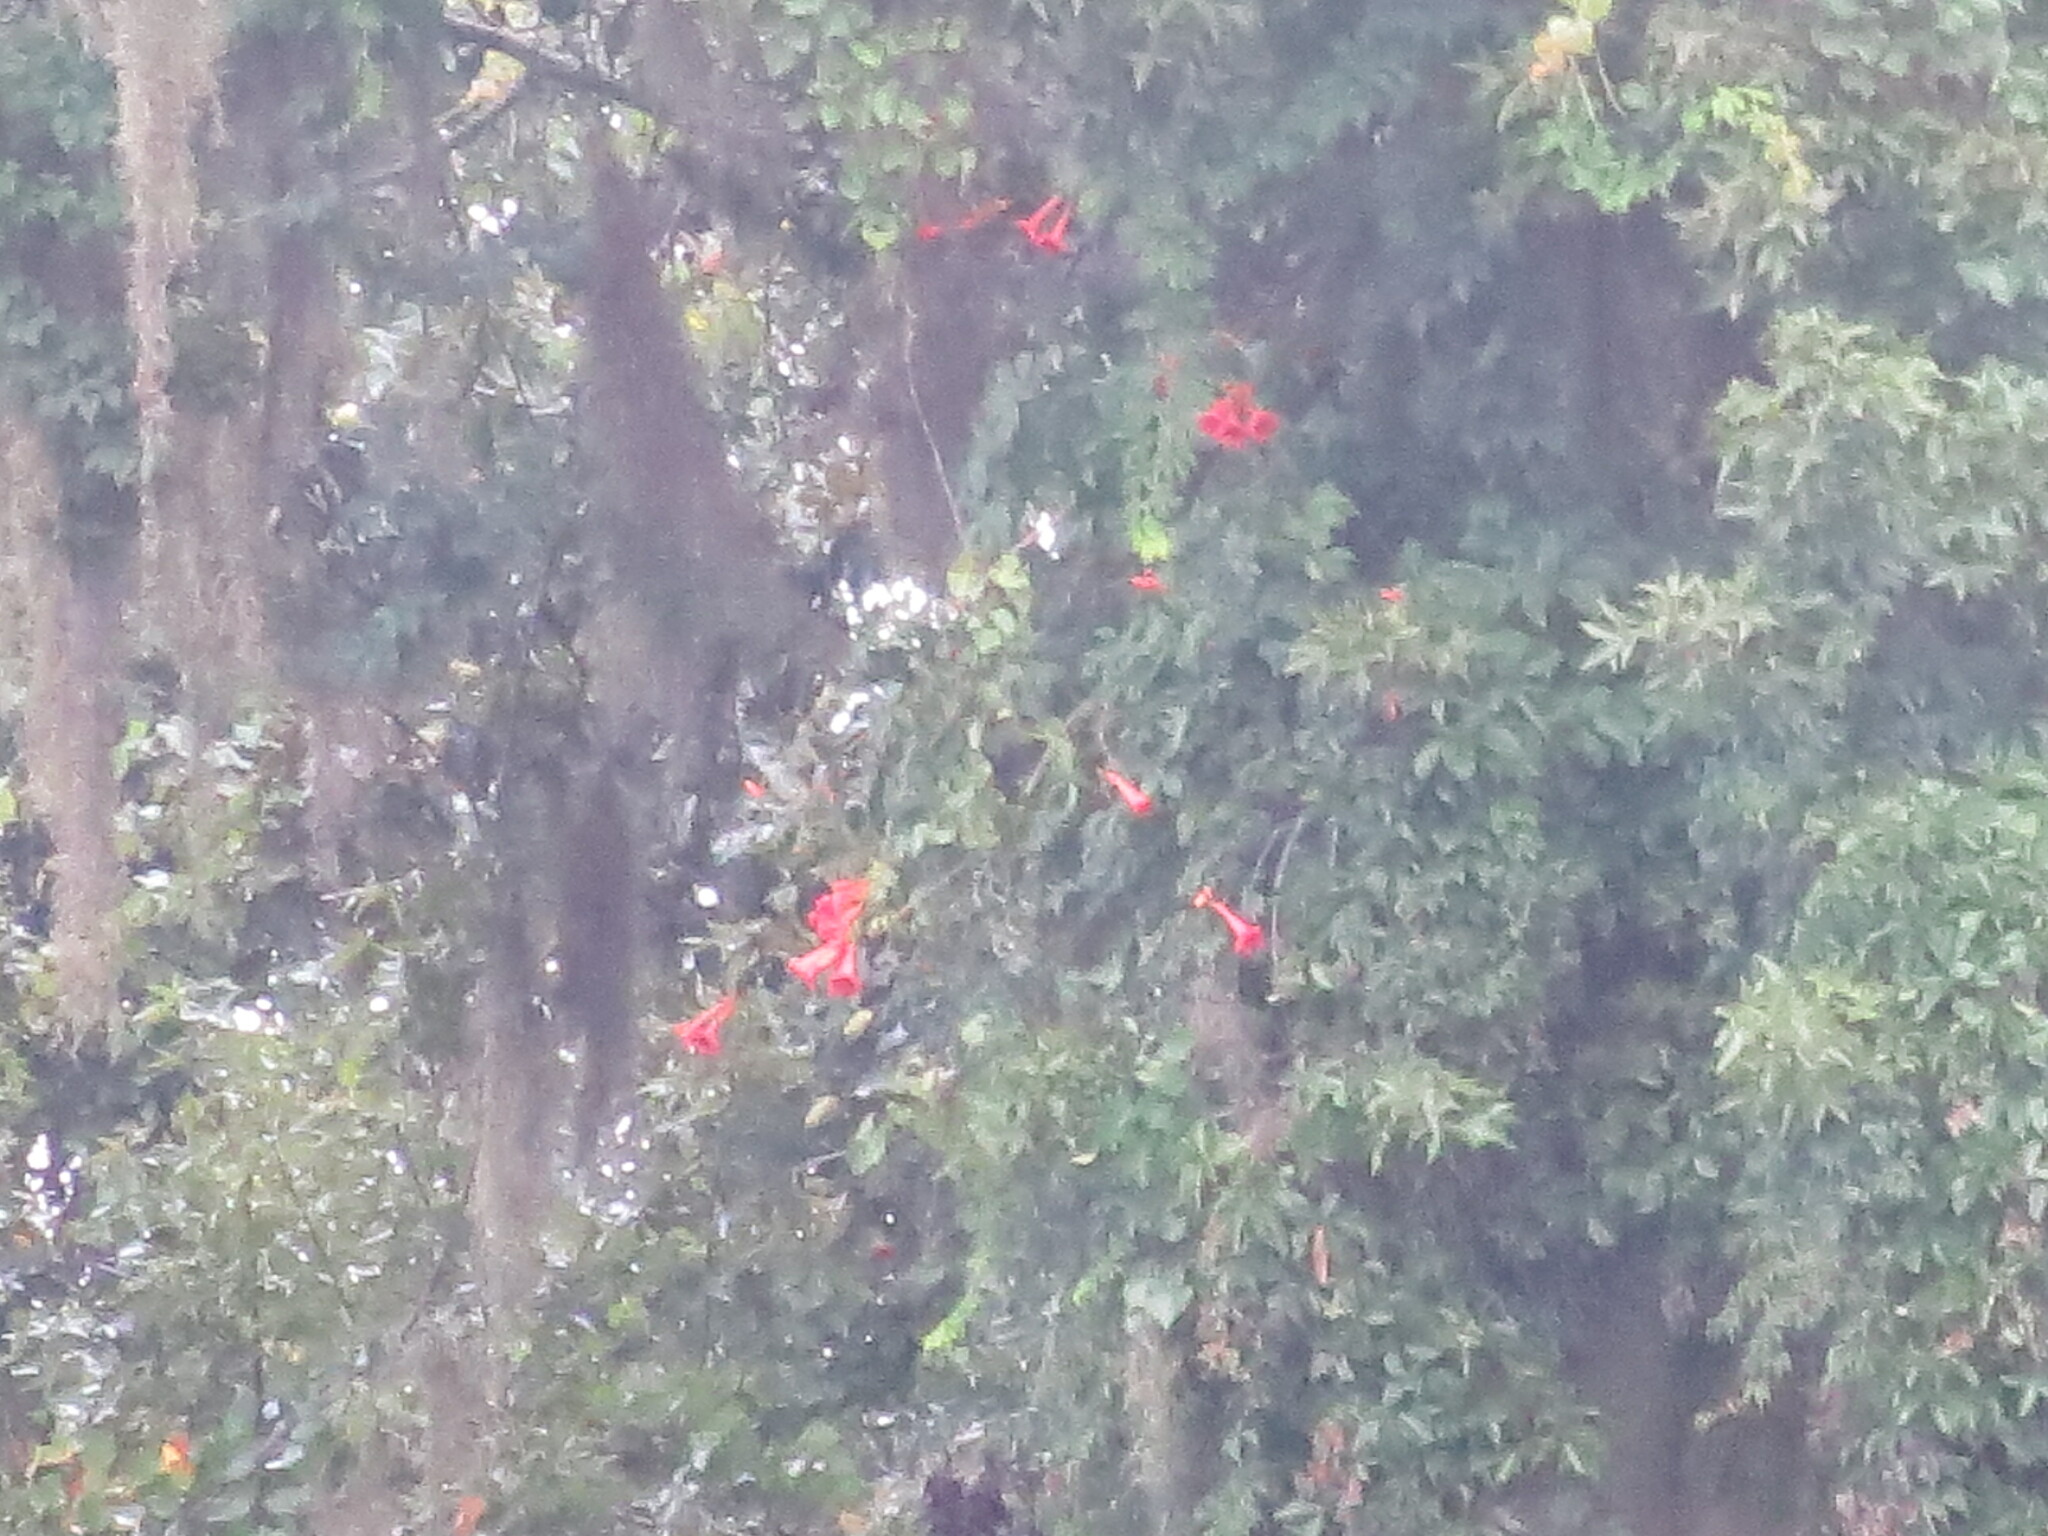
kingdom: Plantae
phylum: Tracheophyta
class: Magnoliopsida
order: Lamiales
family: Bignoniaceae
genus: Campsis
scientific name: Campsis radicans
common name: Trumpet-creeper
